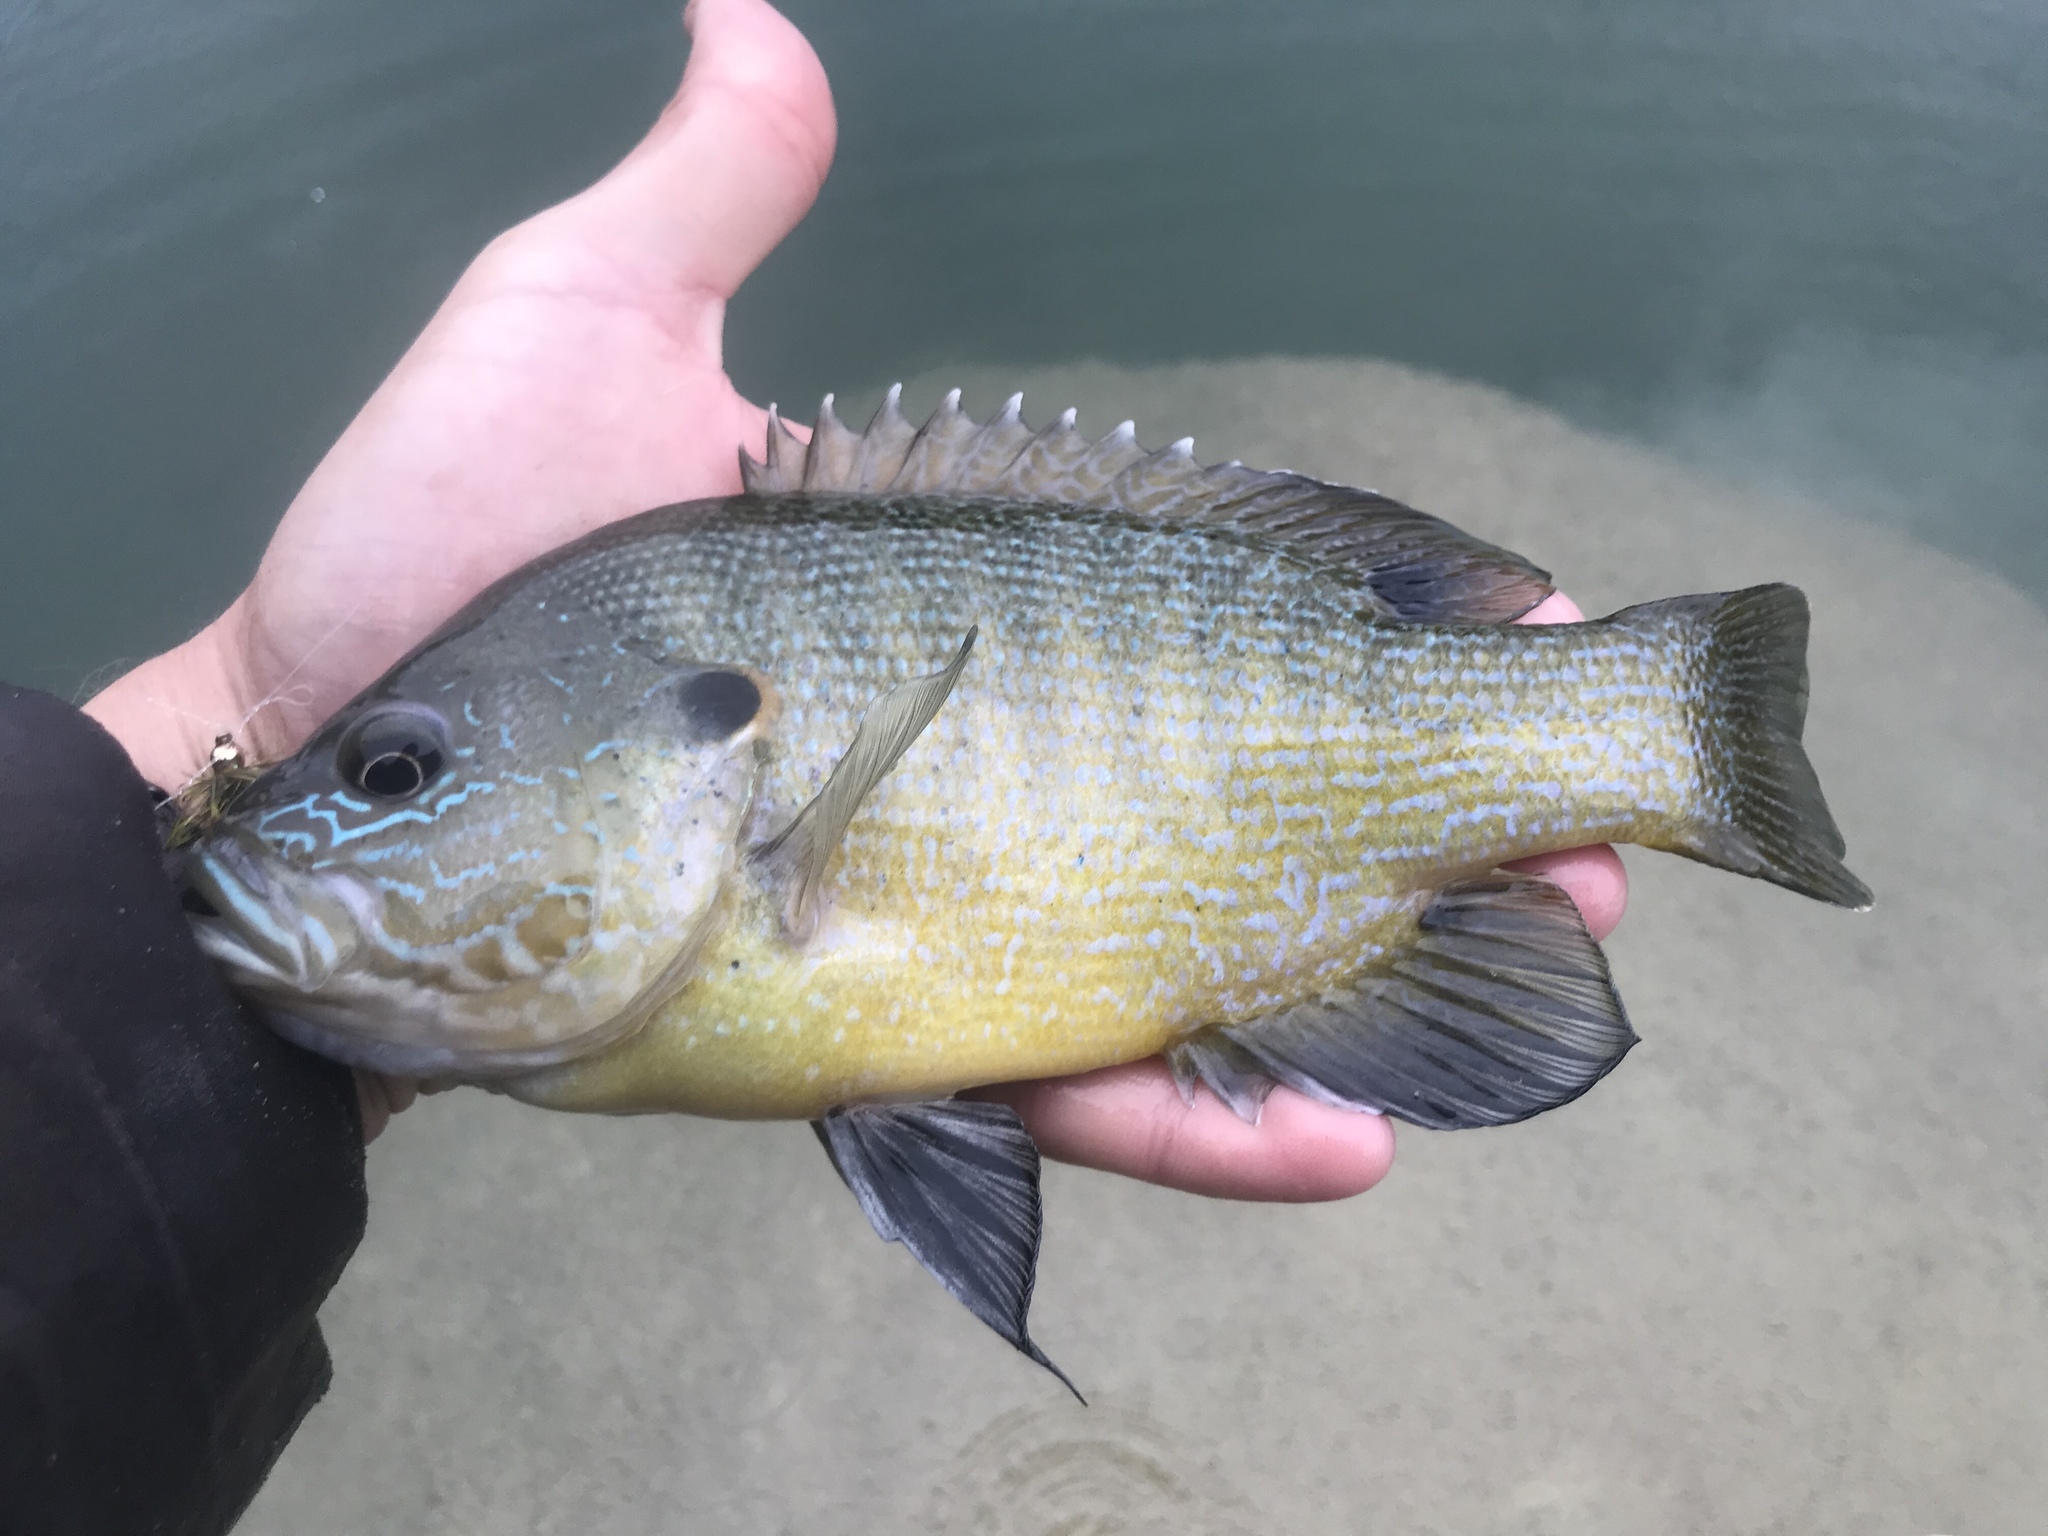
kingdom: Animalia
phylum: Chordata
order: Perciformes
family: Centrarchidae
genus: Lepomis
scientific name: Lepomis cyanellus
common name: Green sunfish
